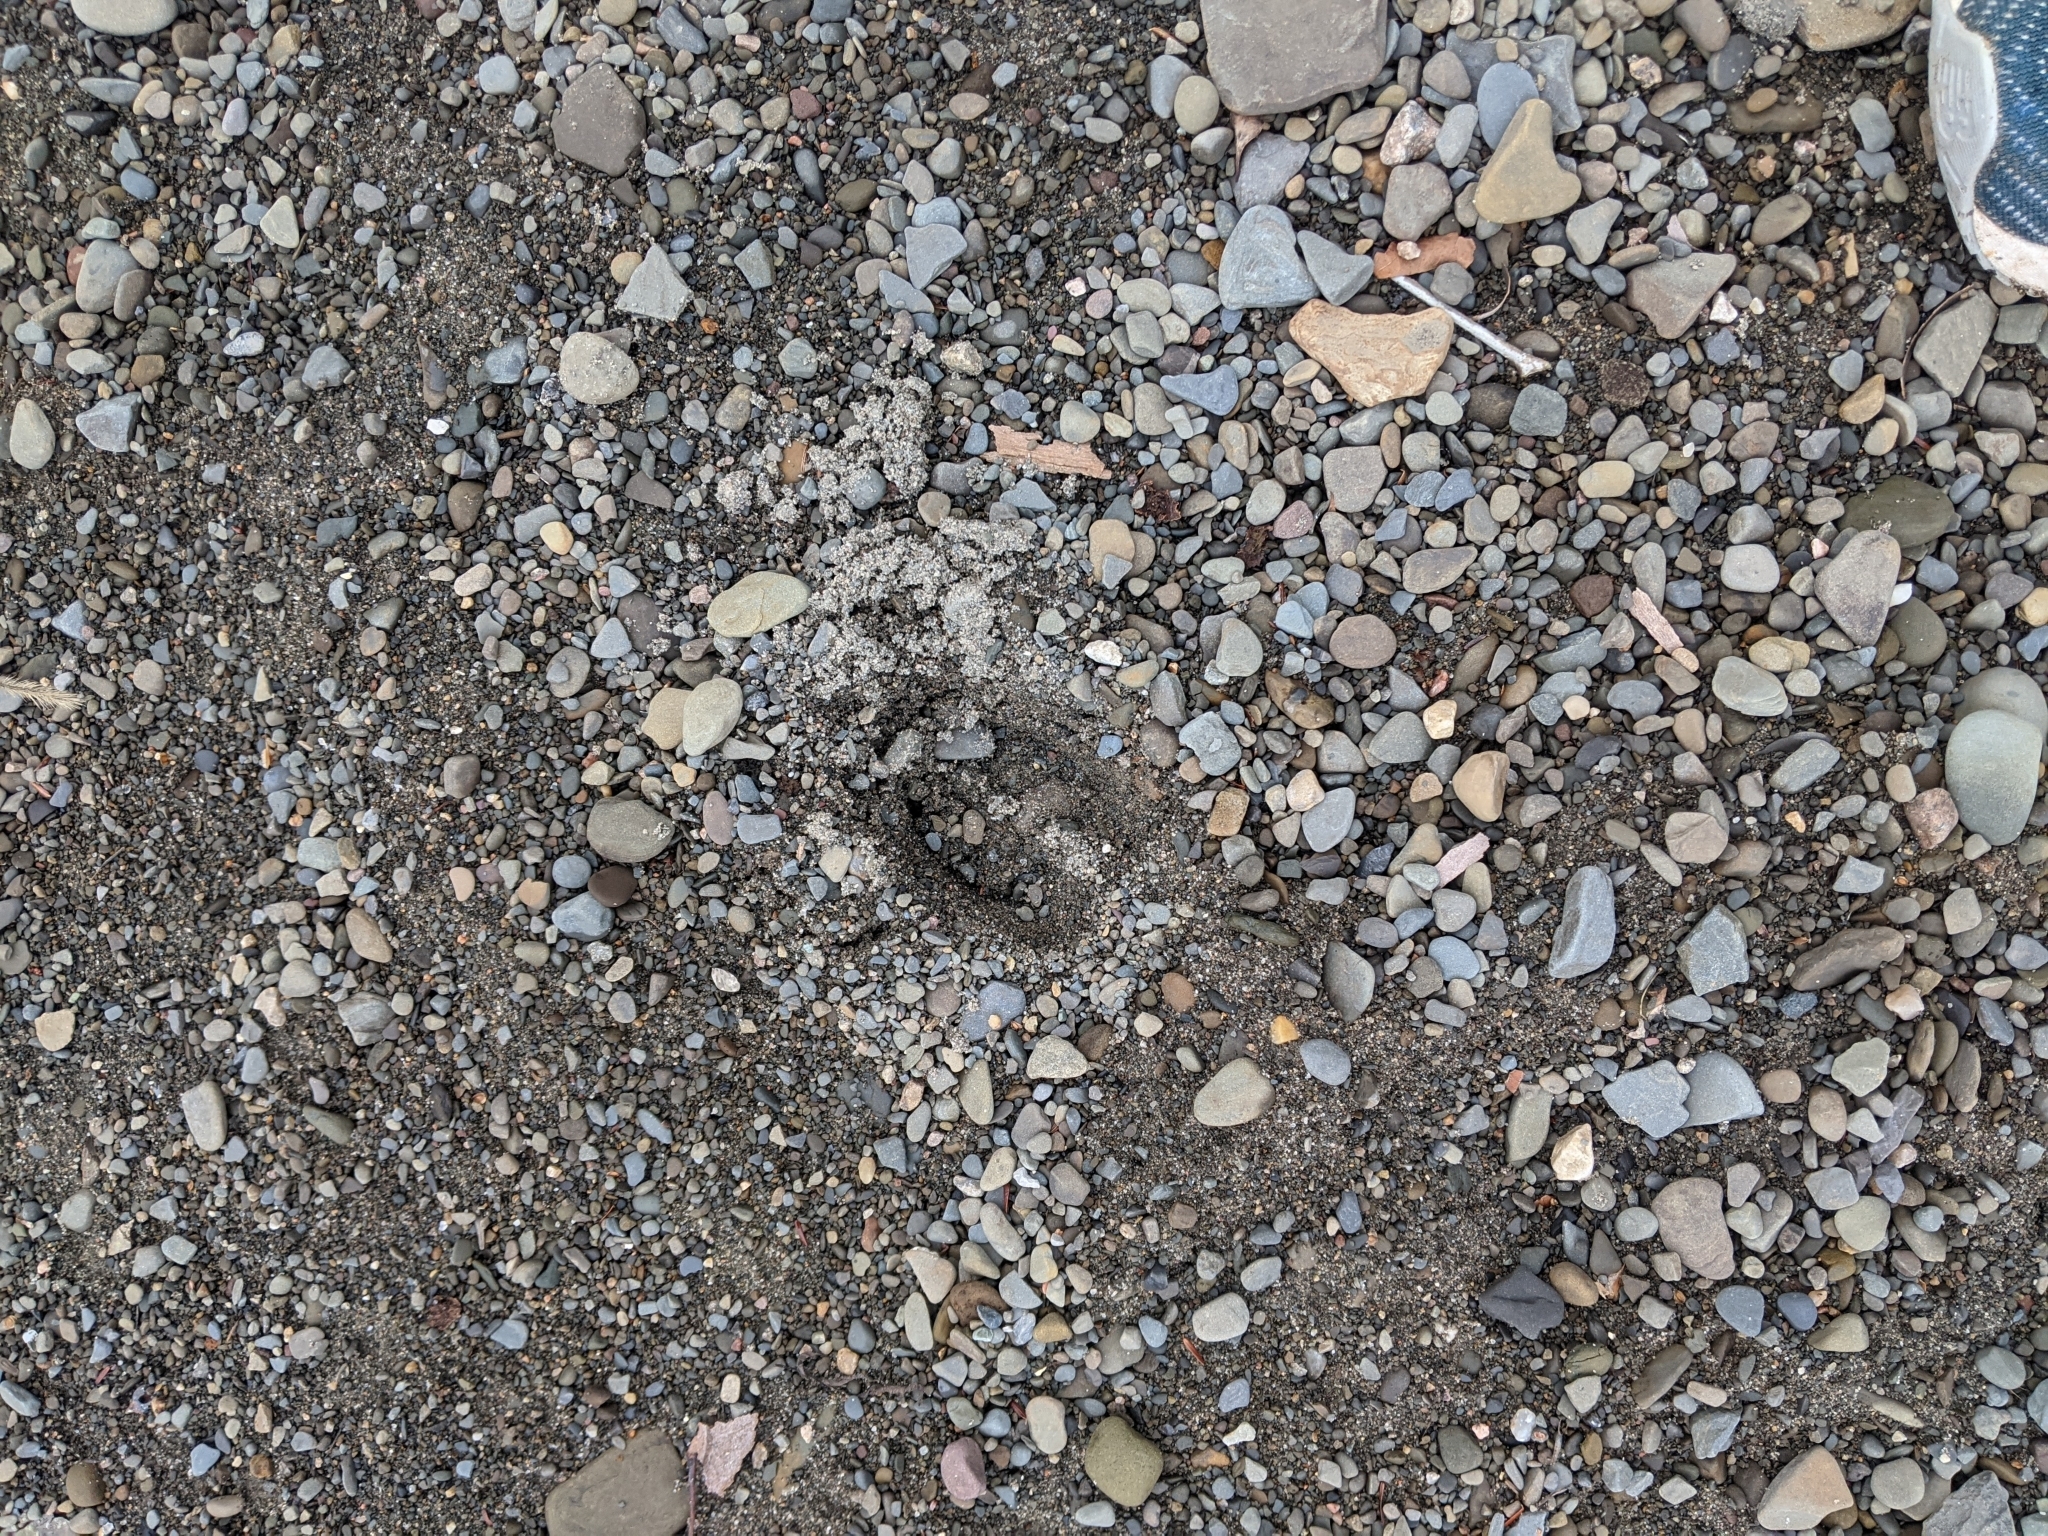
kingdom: Animalia
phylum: Chordata
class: Mammalia
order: Artiodactyla
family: Cervidae
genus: Odocoileus
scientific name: Odocoileus virginianus
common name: White-tailed deer
